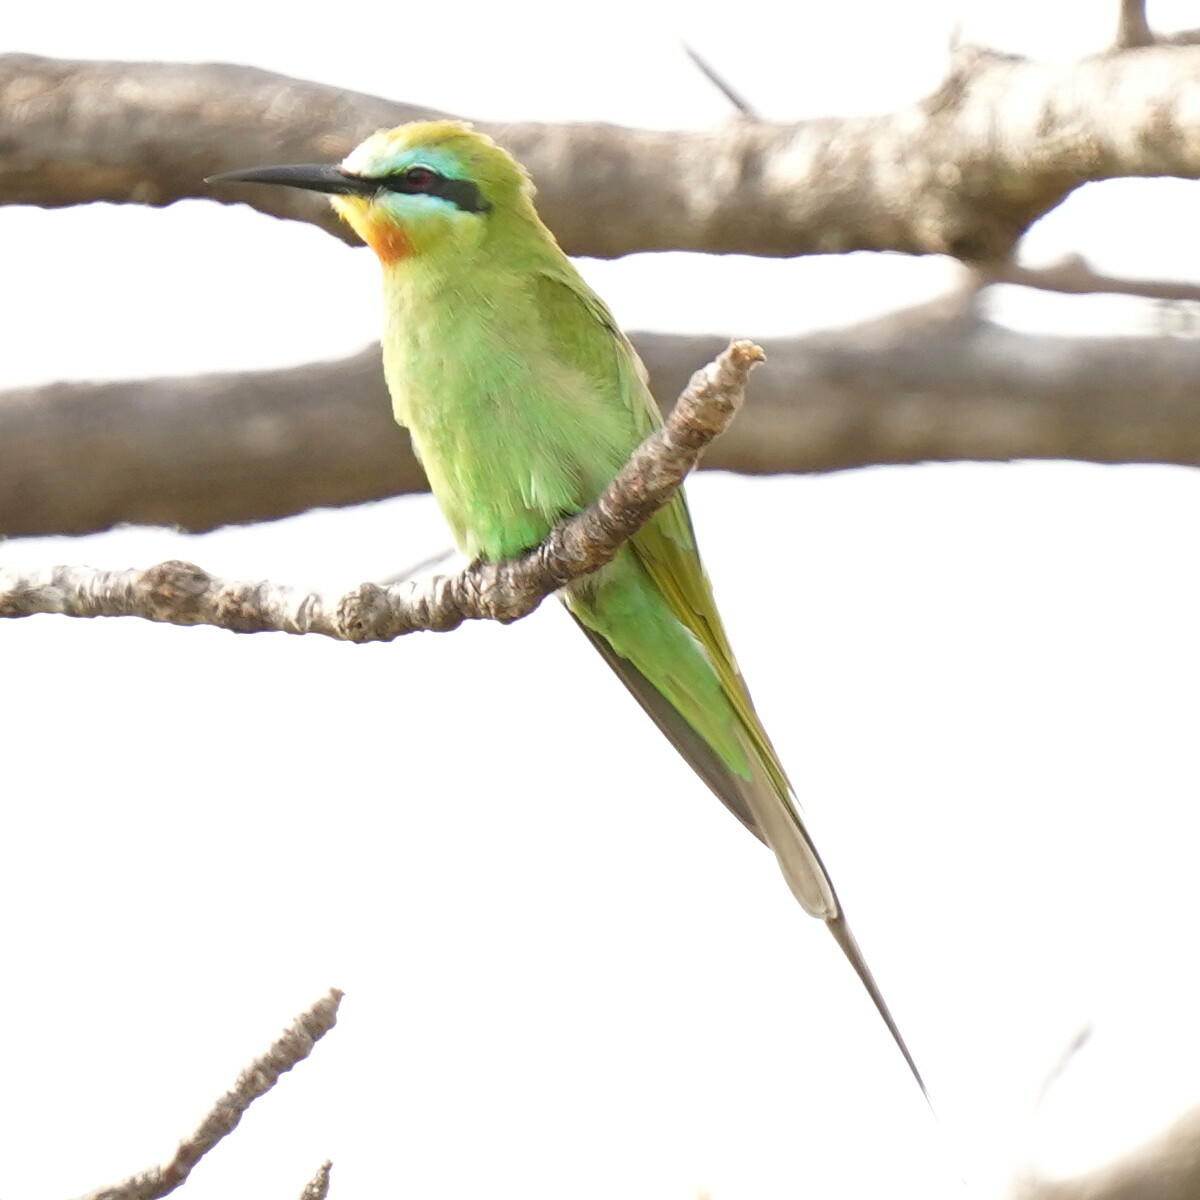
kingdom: Animalia
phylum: Chordata
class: Aves
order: Coraciiformes
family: Meropidae
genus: Merops
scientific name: Merops persicus
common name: Blue-cheeked bee-eater
